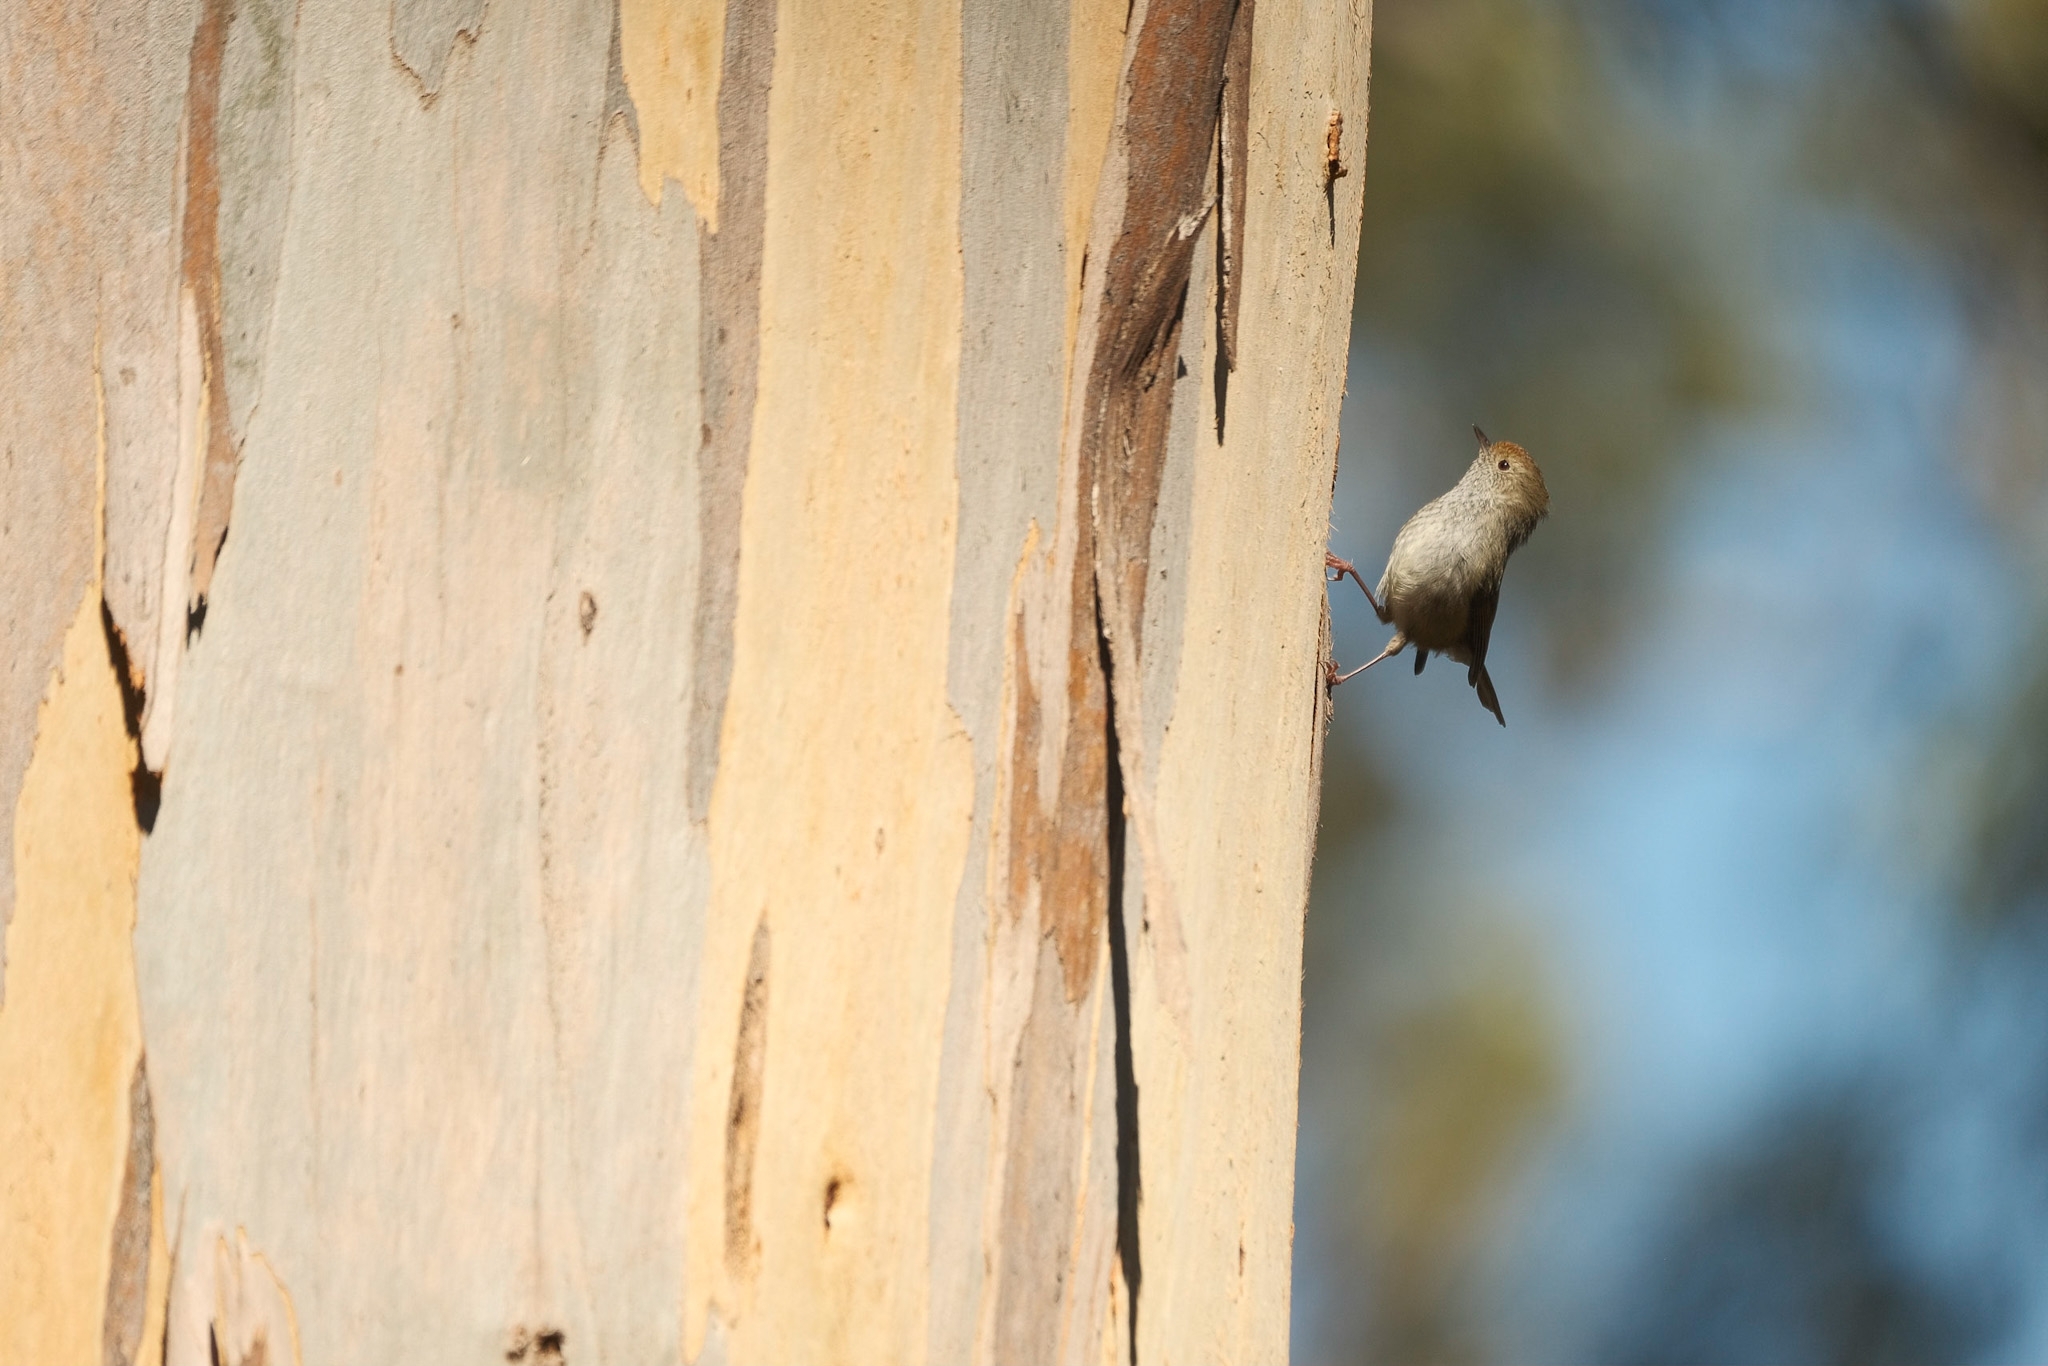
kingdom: Animalia
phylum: Chordata
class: Aves
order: Passeriformes
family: Acanthizidae
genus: Acanthiza
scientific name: Acanthiza ewingii
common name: Tasmanian thornbill
